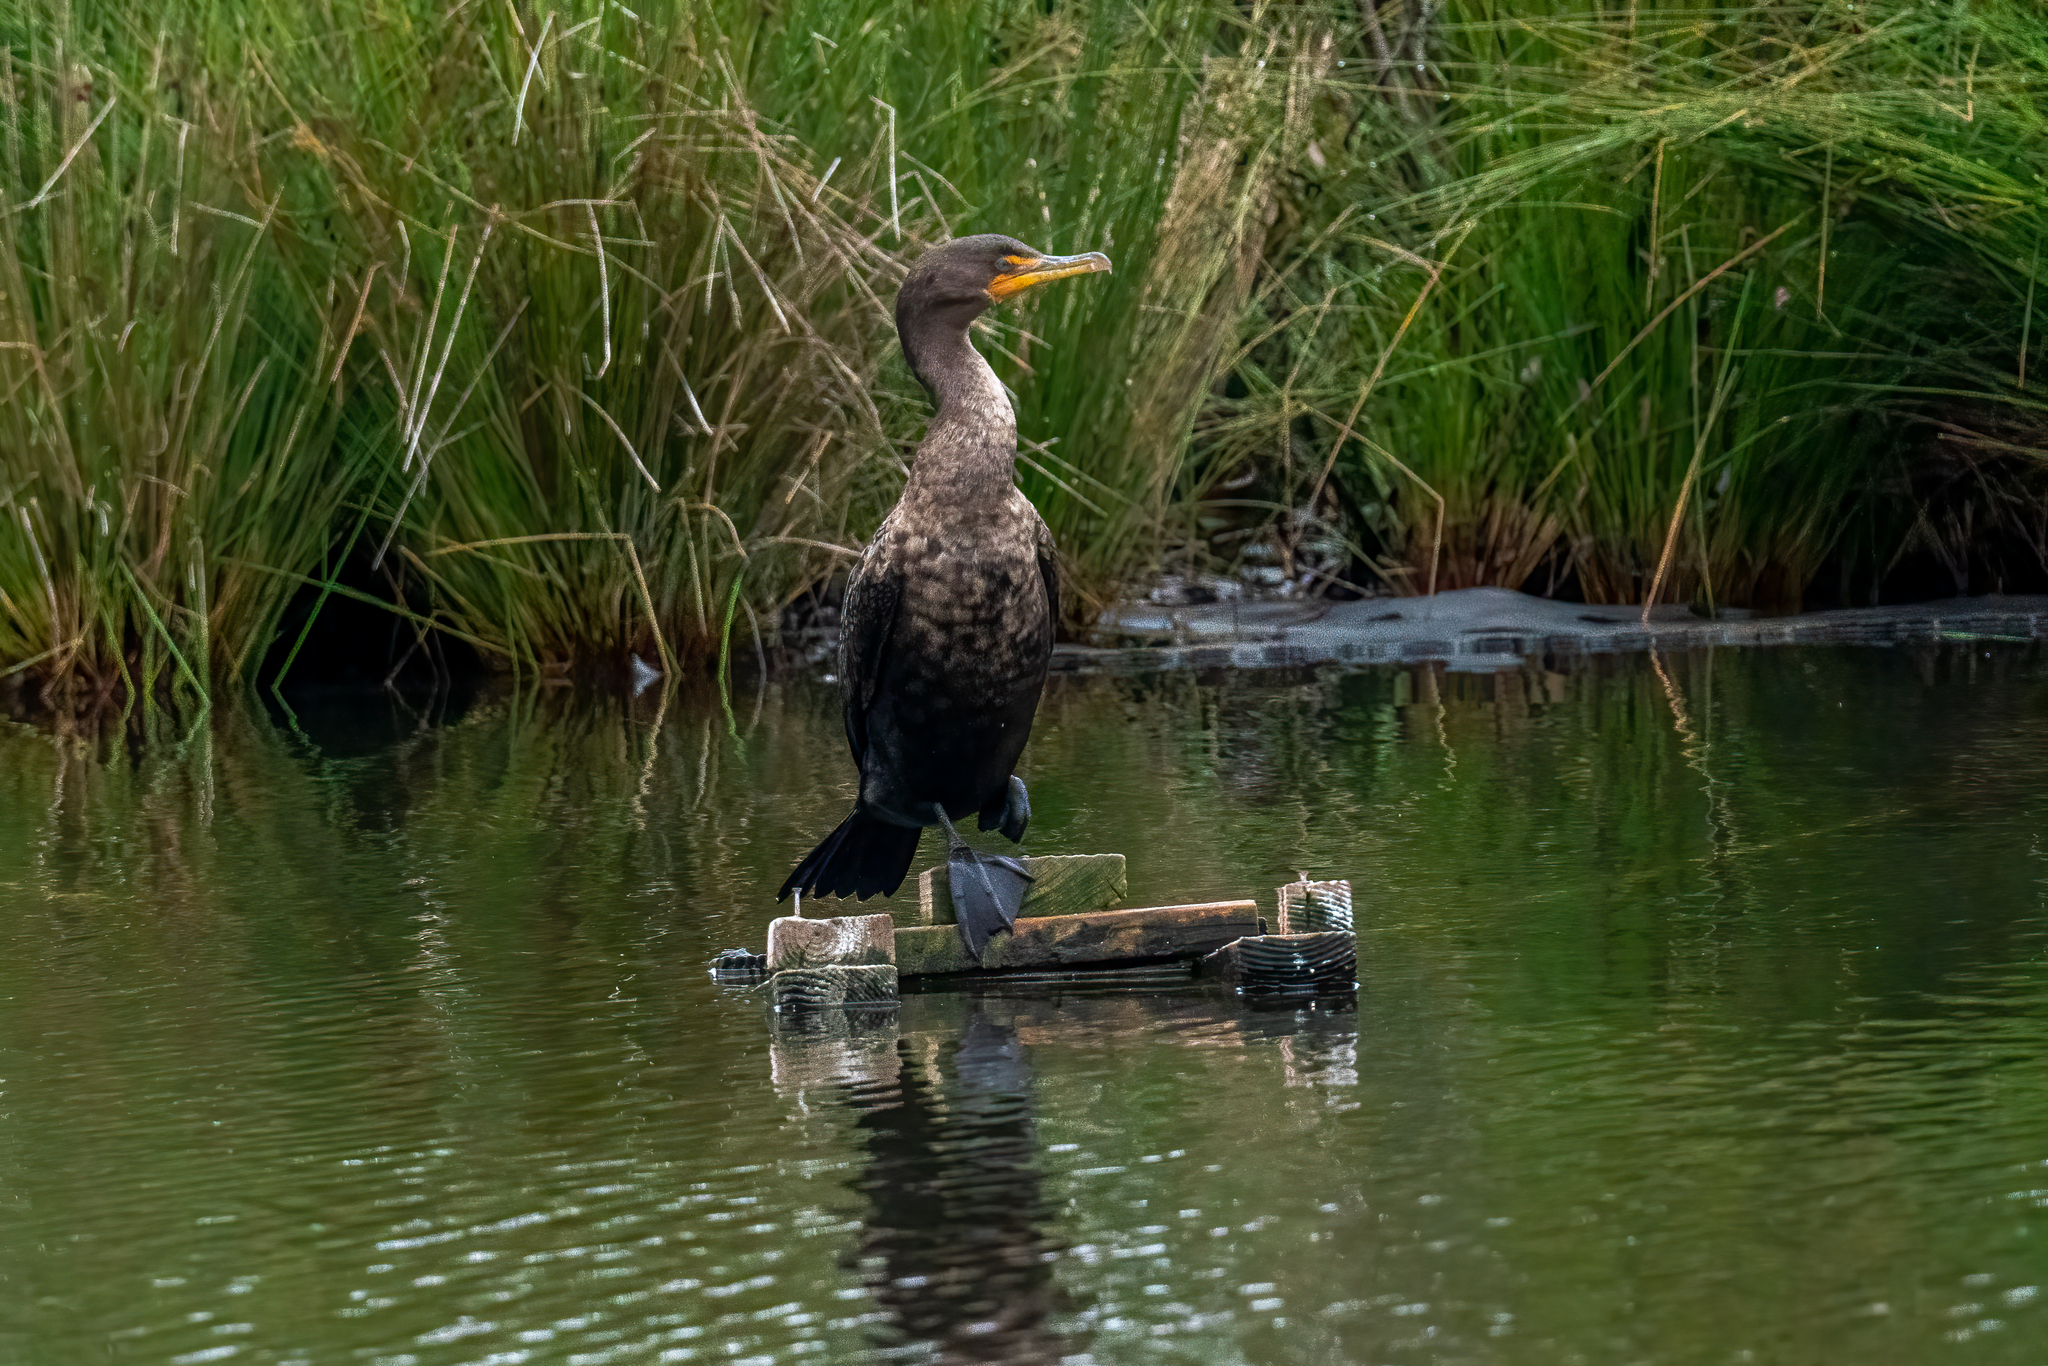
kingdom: Animalia
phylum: Chordata
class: Aves
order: Suliformes
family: Phalacrocoracidae
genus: Phalacrocorax
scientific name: Phalacrocorax auritus
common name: Double-crested cormorant
